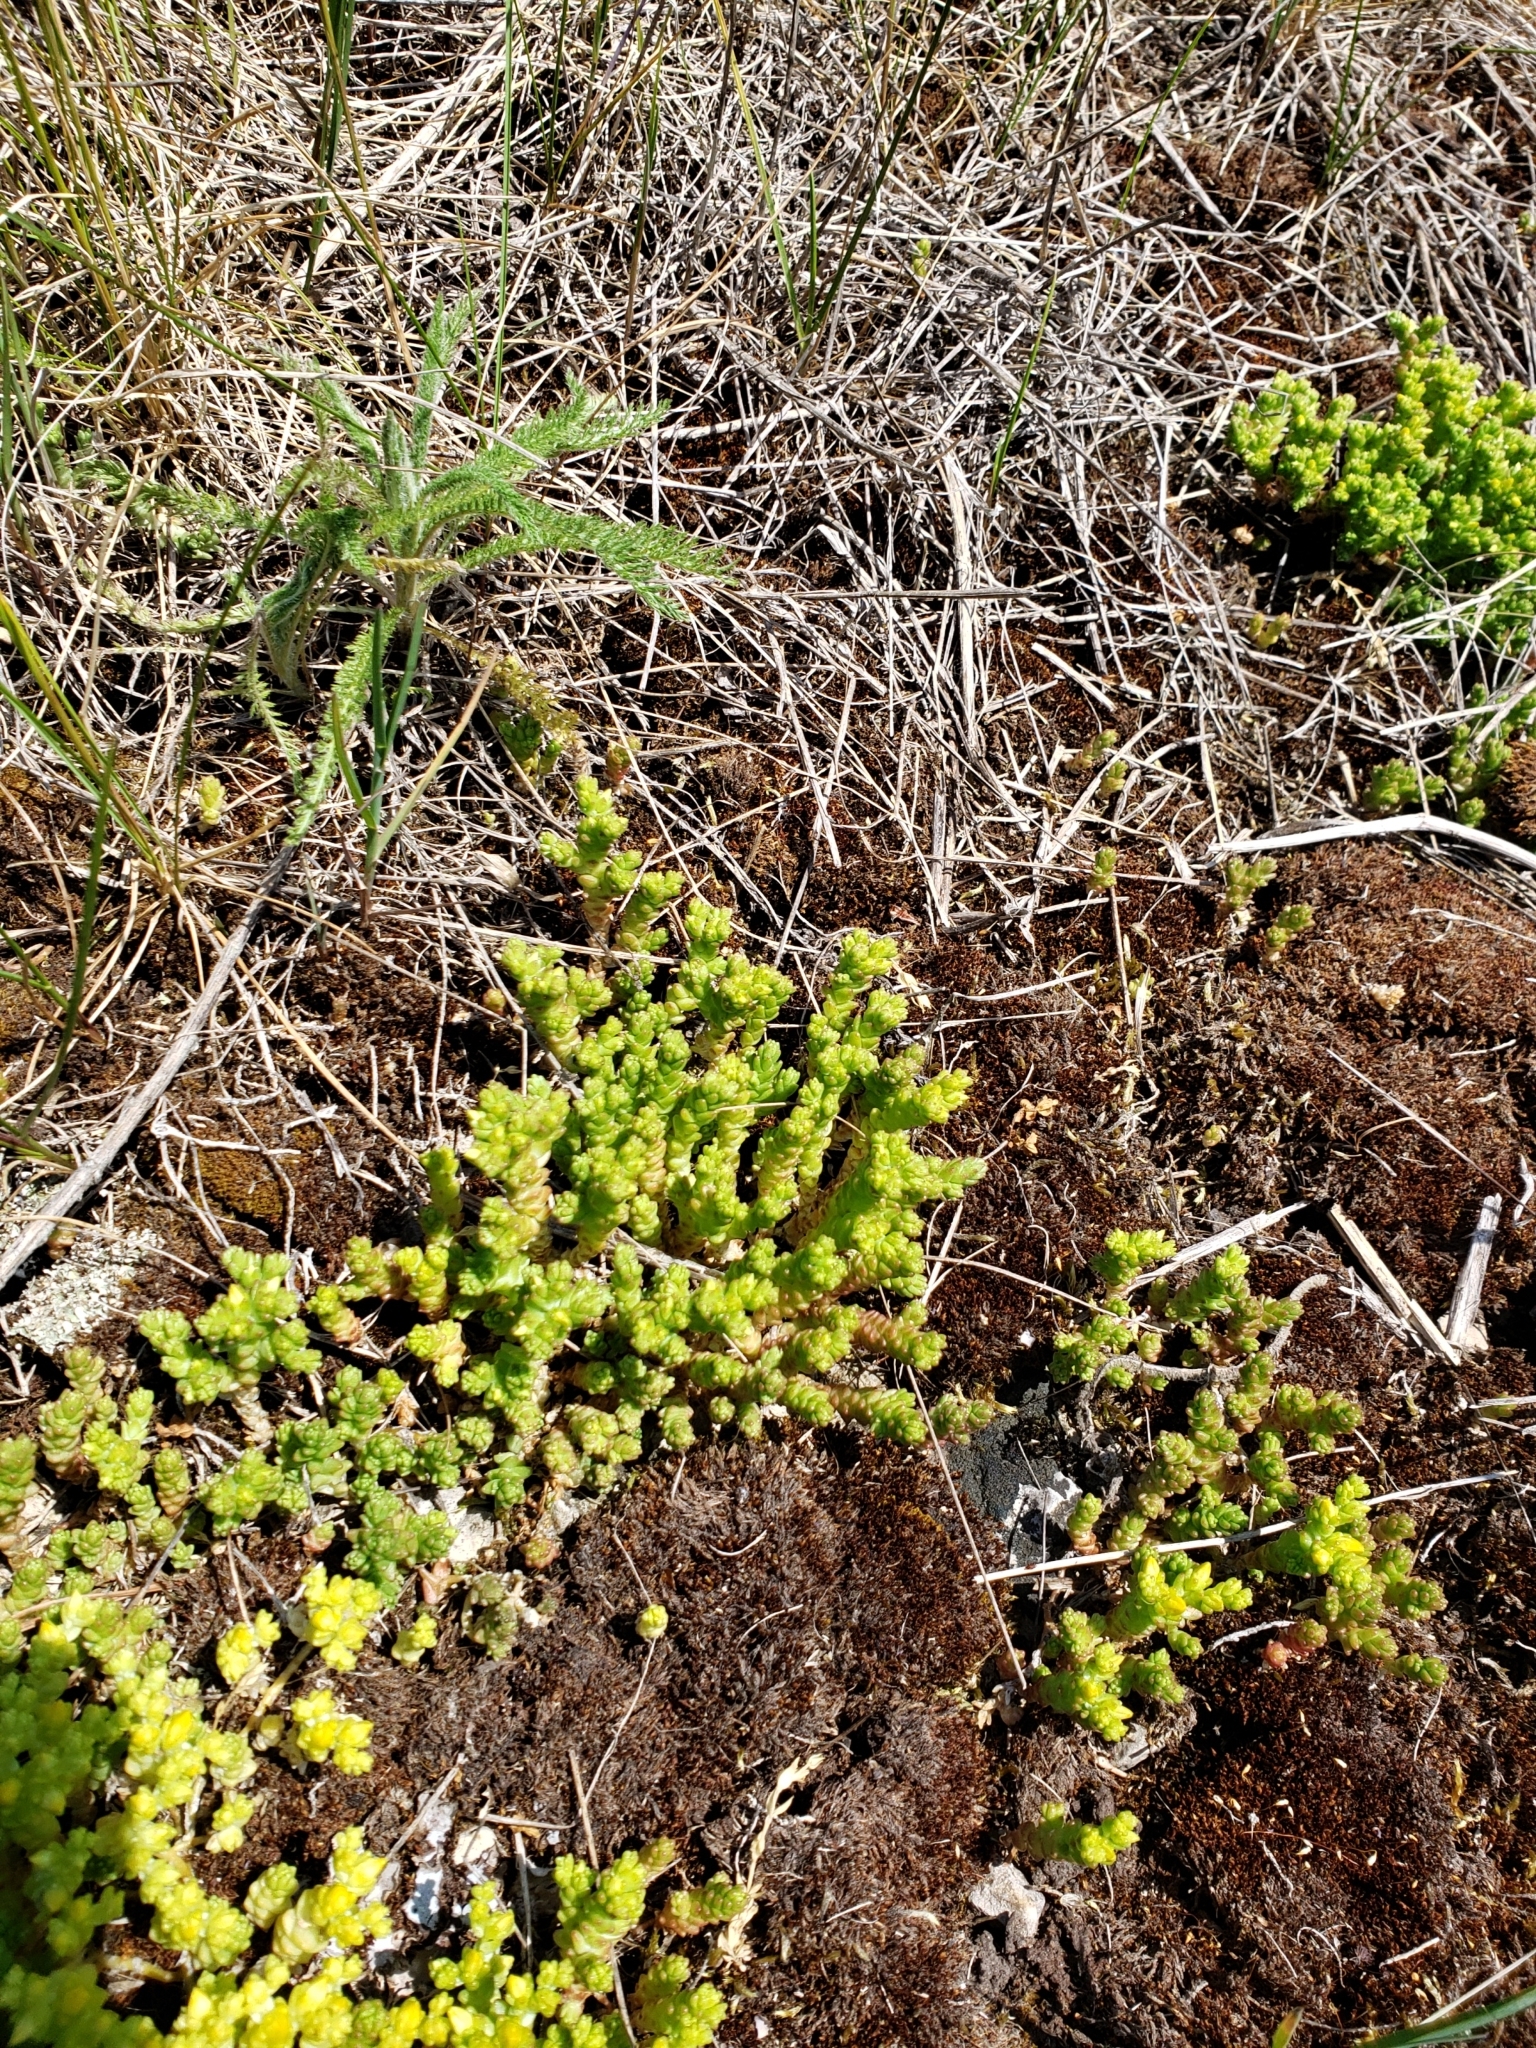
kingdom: Plantae
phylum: Tracheophyta
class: Magnoliopsida
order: Saxifragales
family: Crassulaceae
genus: Sedum
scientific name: Sedum acre
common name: Biting stonecrop
